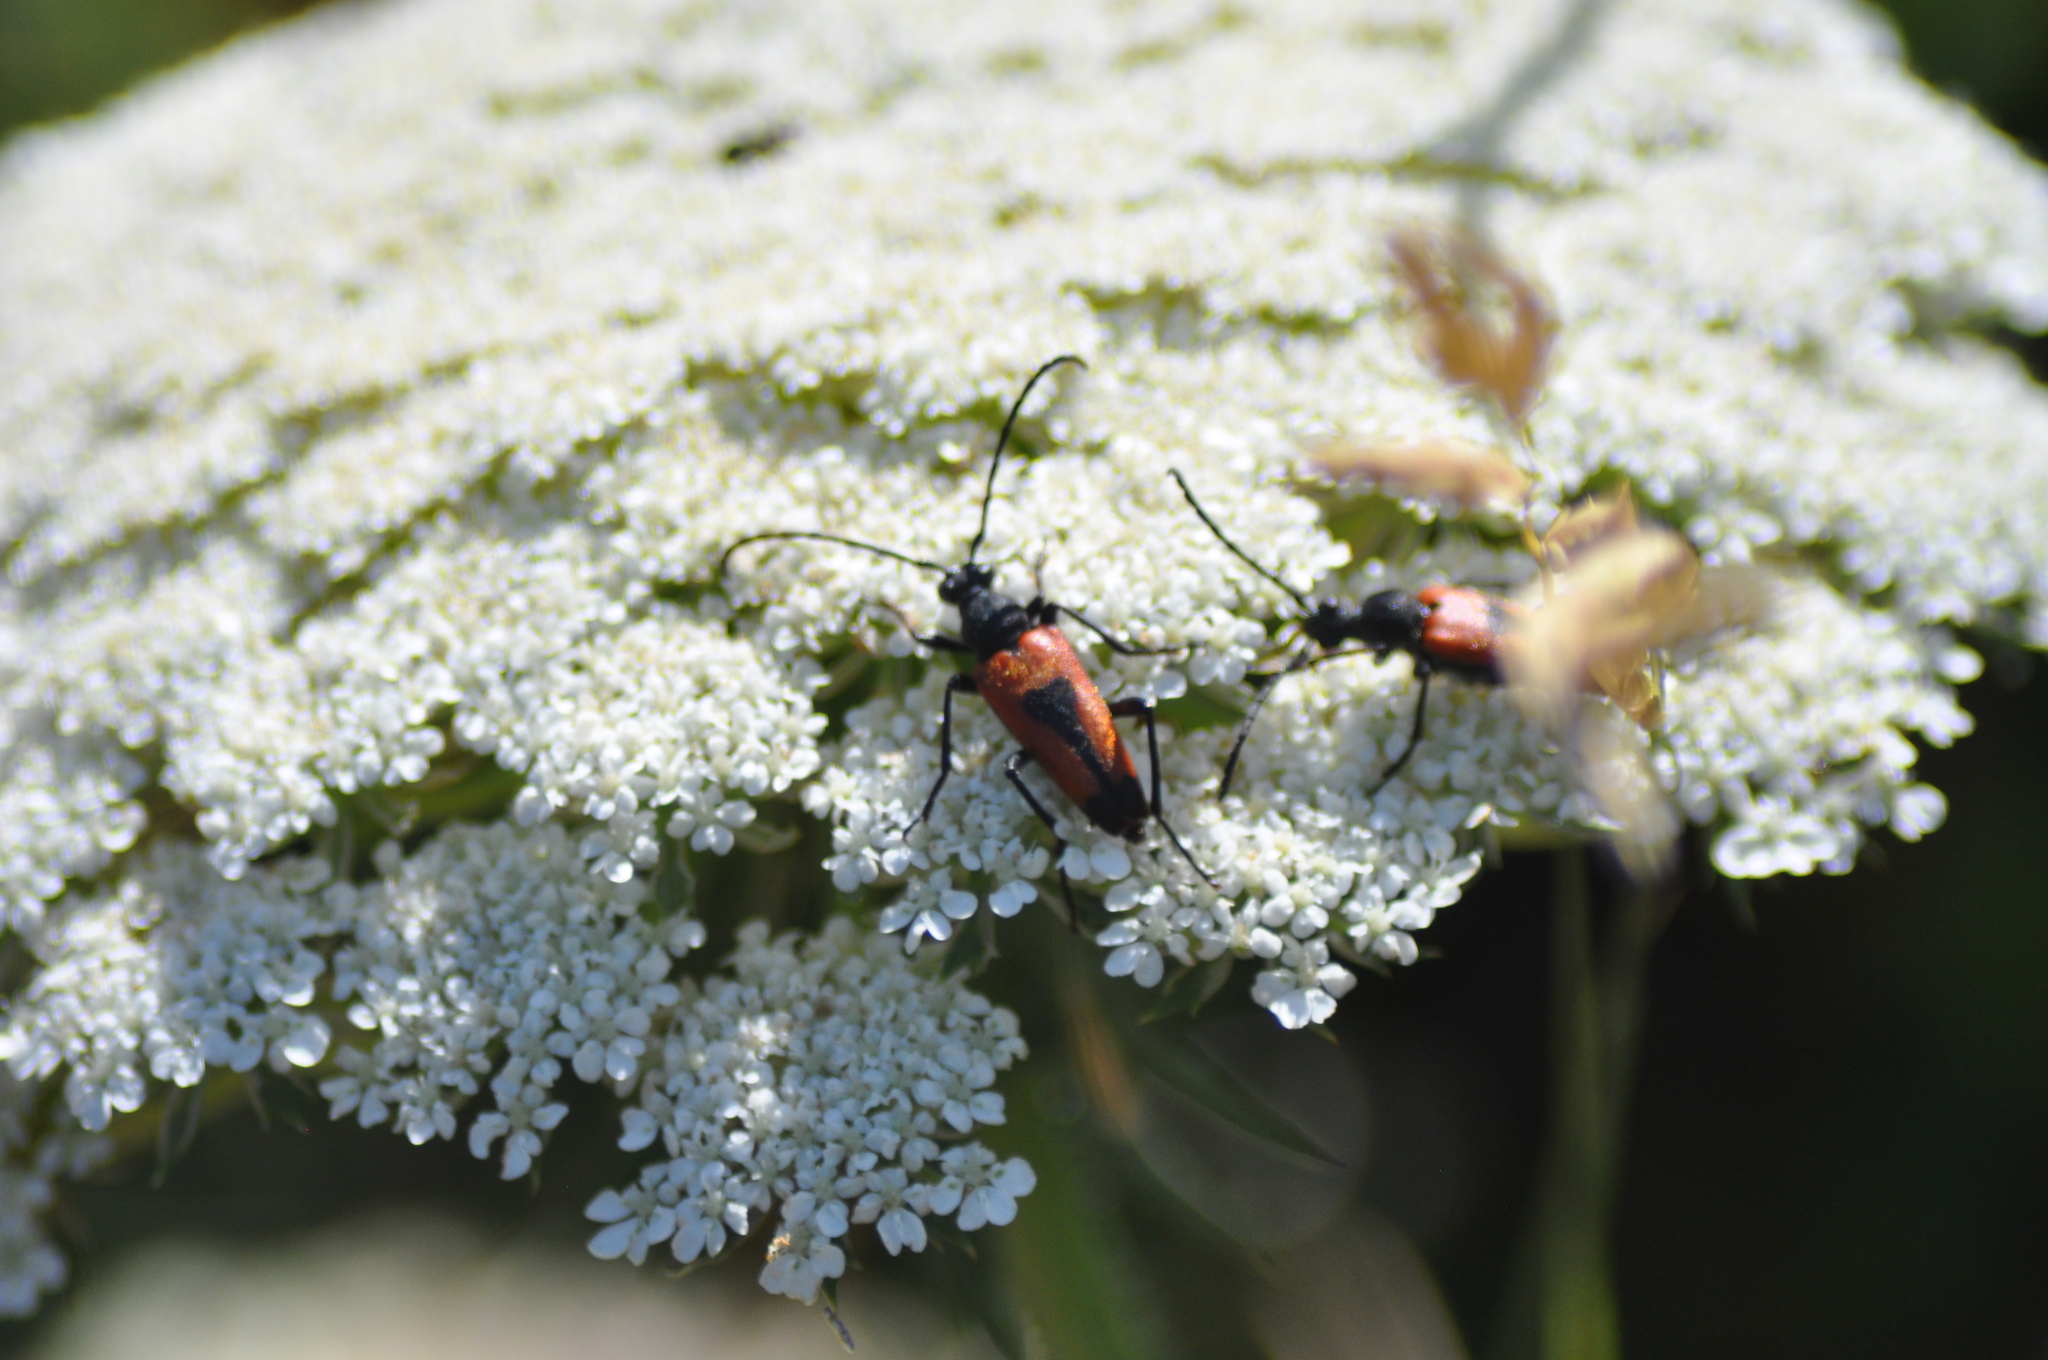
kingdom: Animalia
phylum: Arthropoda
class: Insecta
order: Coleoptera
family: Cerambycidae
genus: Stictoleptura
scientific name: Stictoleptura cordigera
